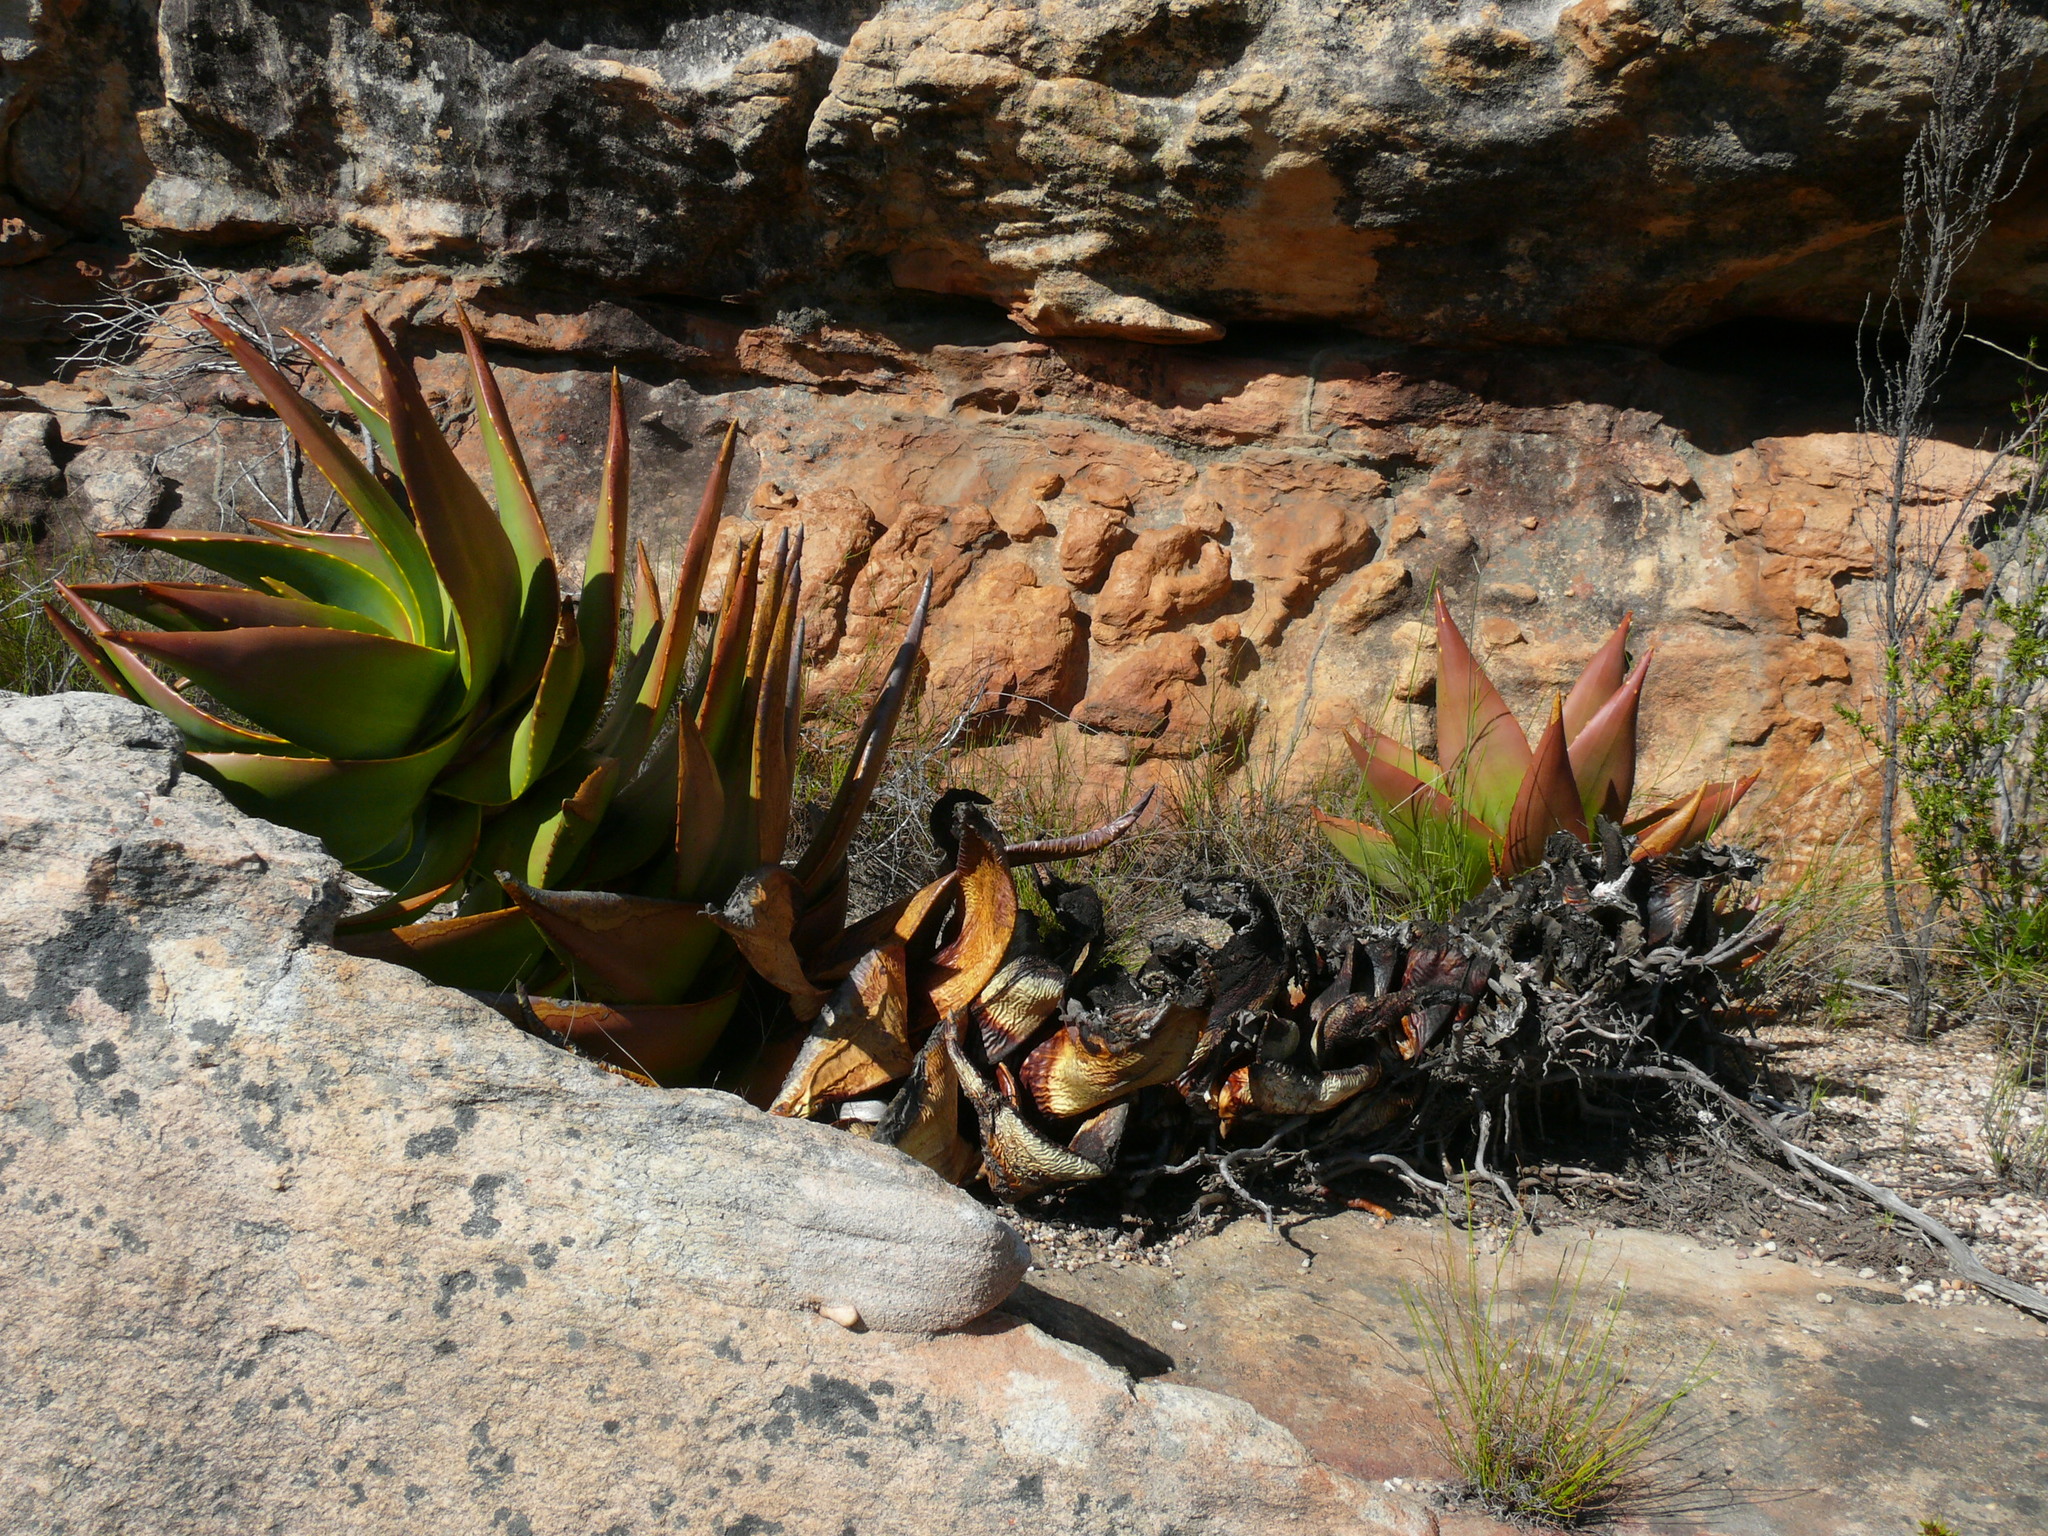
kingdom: Plantae
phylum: Tracheophyta
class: Liliopsida
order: Asparagales
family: Asphodelaceae
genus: Aloe
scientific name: Aloe perfoliata
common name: Mitra aloe
